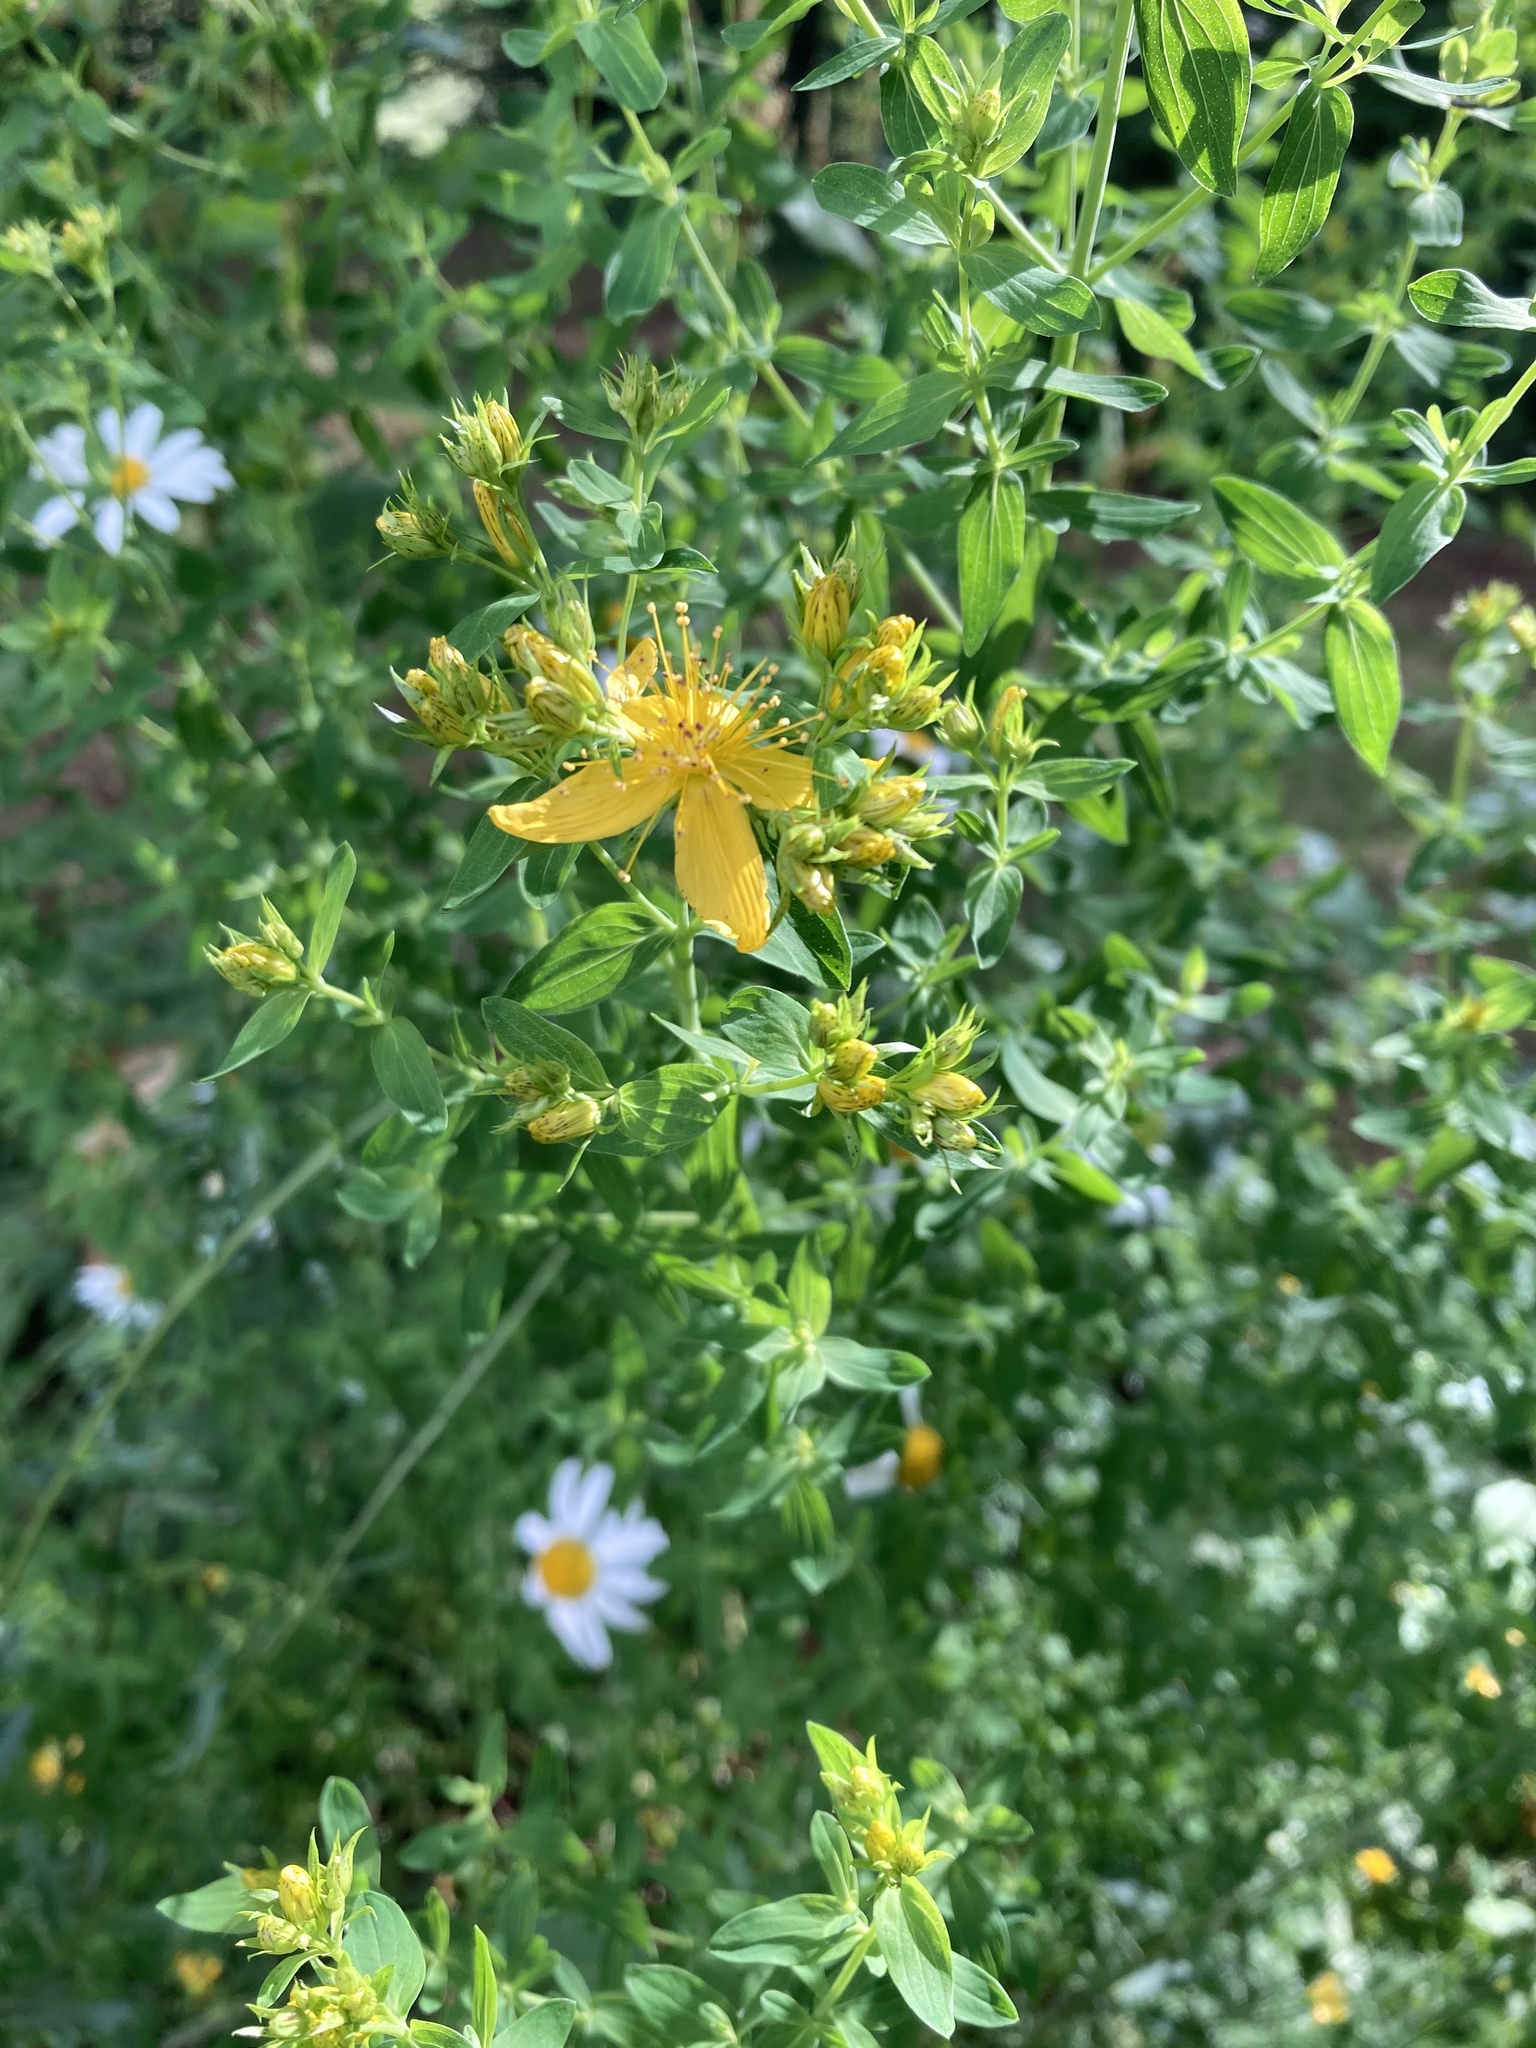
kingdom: Plantae
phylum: Tracheophyta
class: Magnoliopsida
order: Malpighiales
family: Hypericaceae
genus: Hypericum
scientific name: Hypericum perforatum
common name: Common st. johnswort
